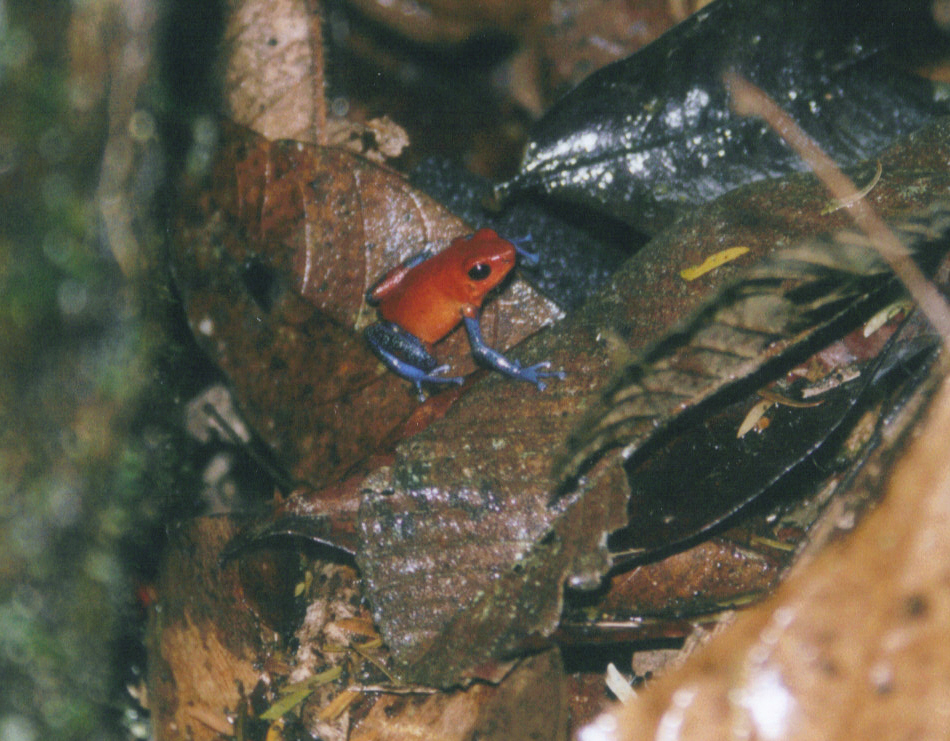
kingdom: Animalia
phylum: Chordata
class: Amphibia
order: Anura
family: Dendrobatidae
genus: Oophaga
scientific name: Oophaga pumilio
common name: Flaming poison frog
